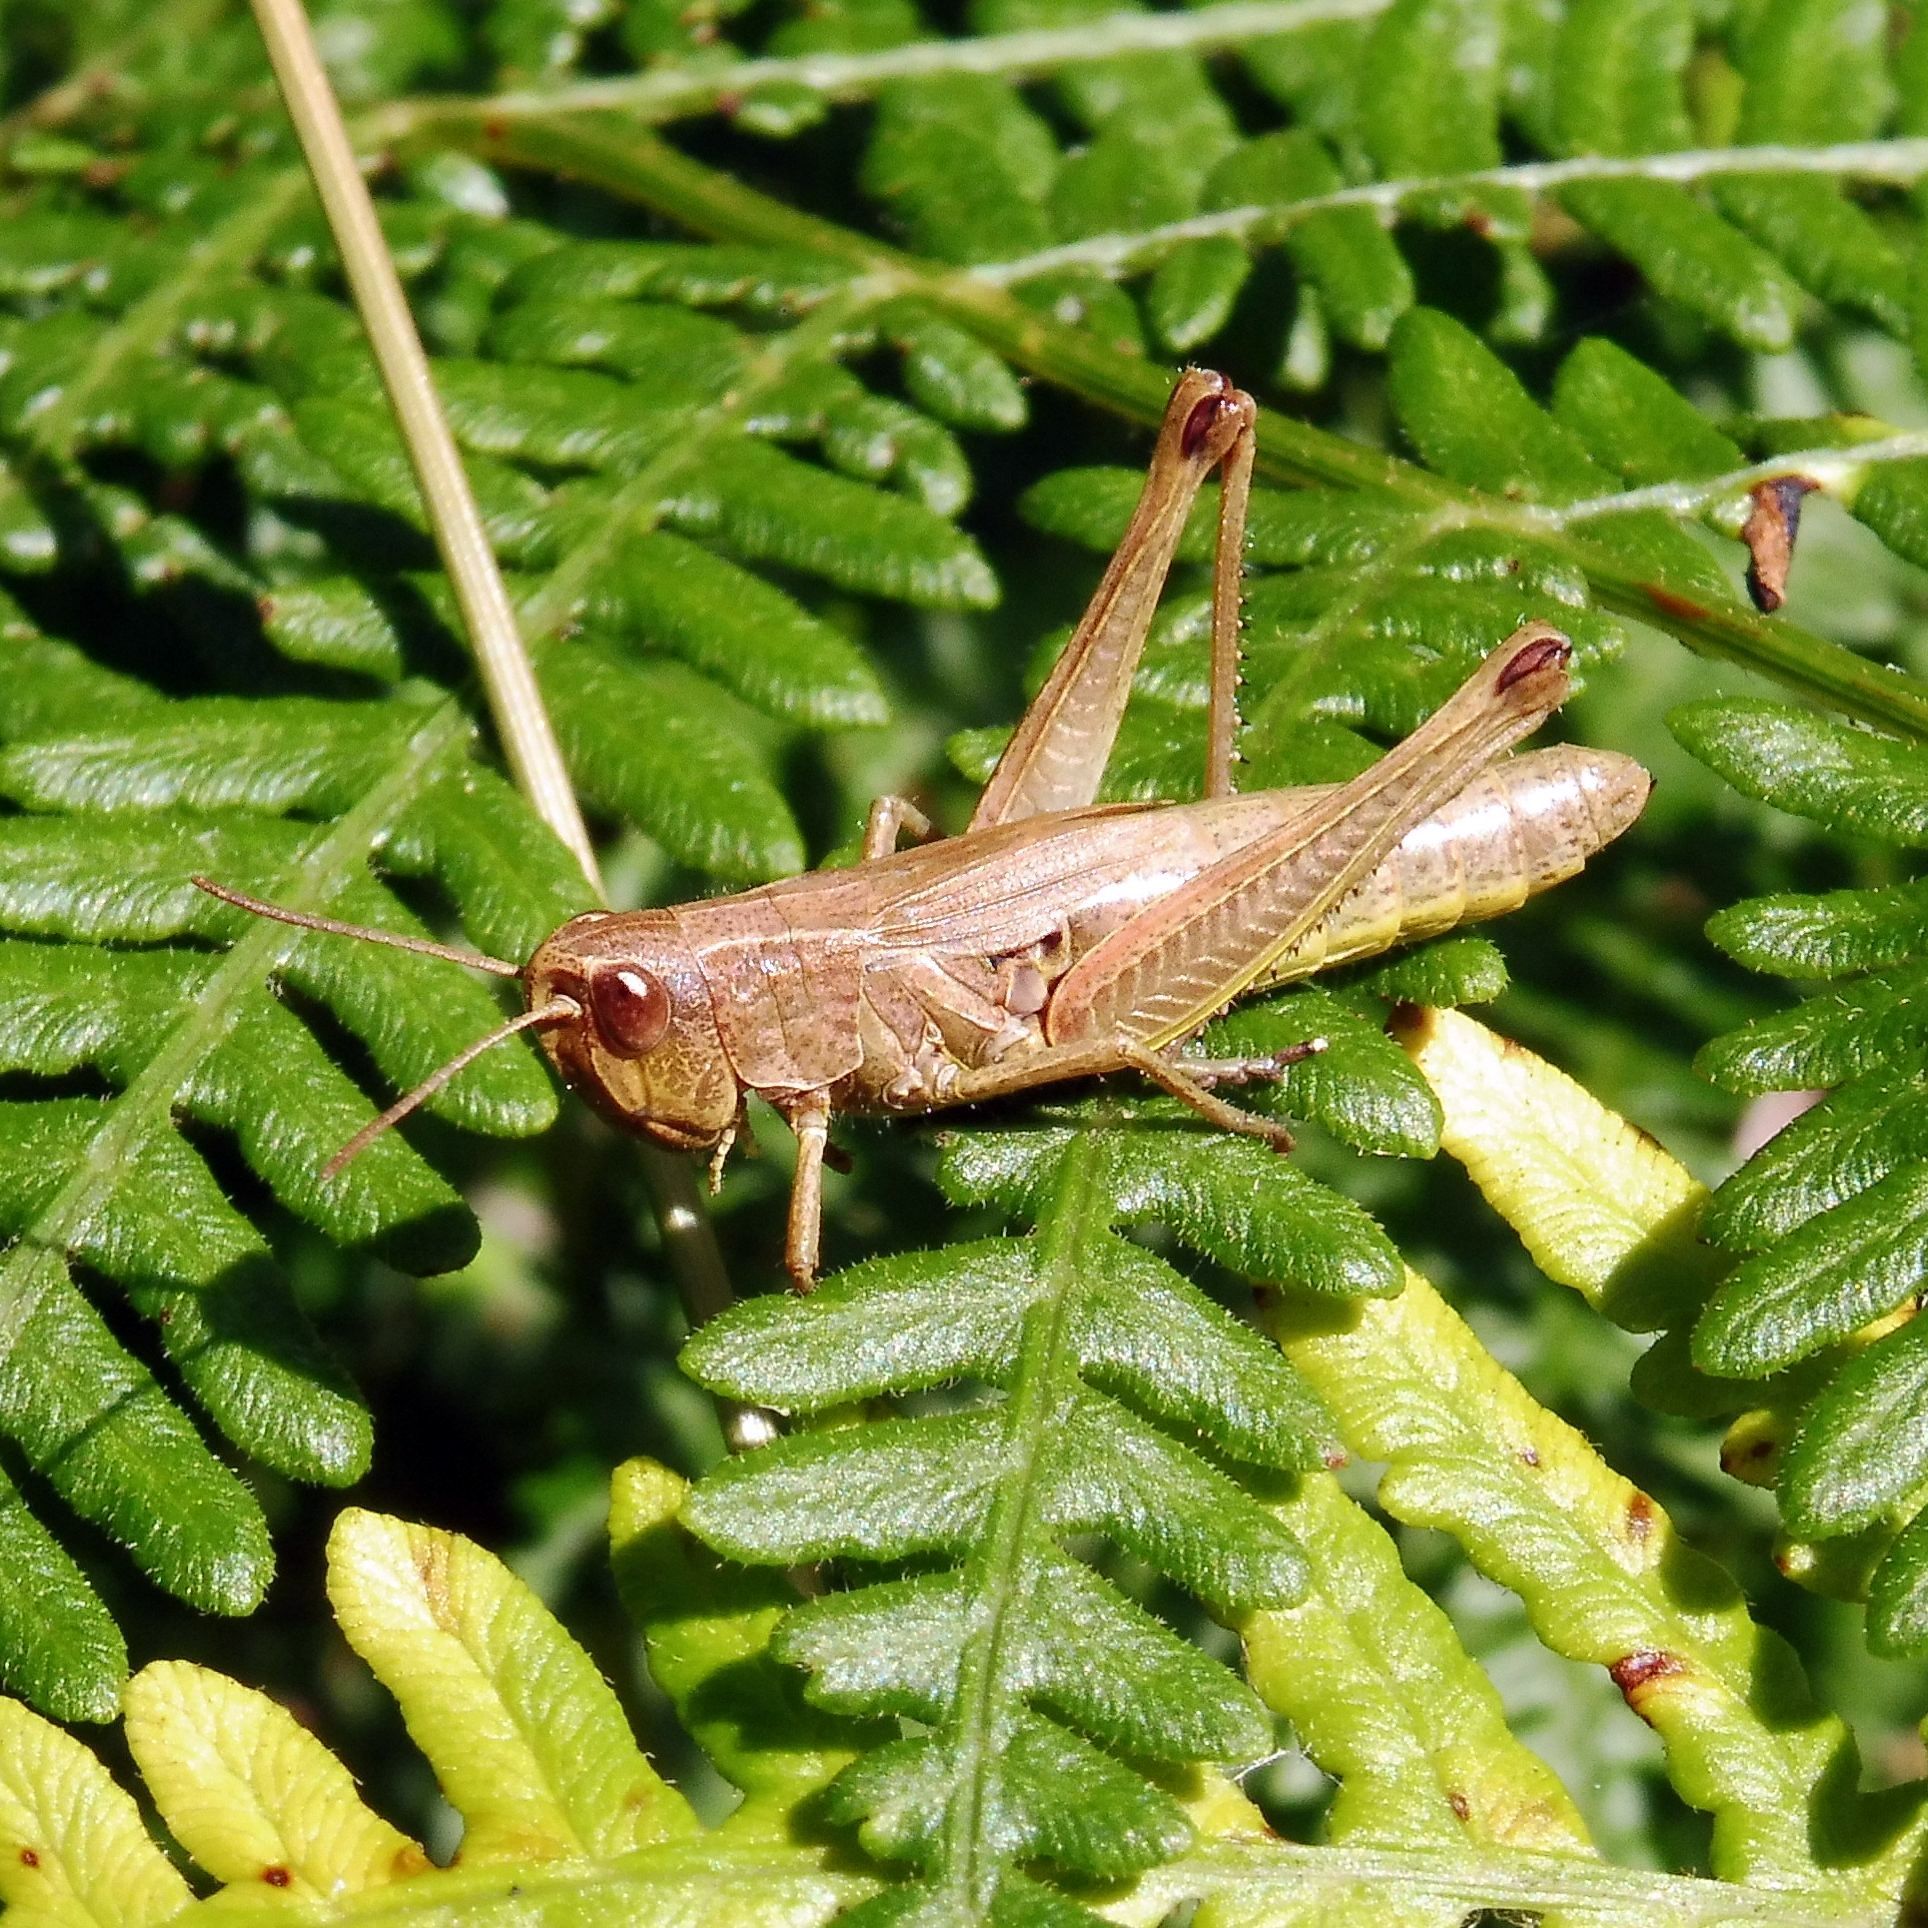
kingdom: Animalia
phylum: Arthropoda
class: Insecta
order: Orthoptera
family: Acrididae
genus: Pseudochorthippus
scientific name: Pseudochorthippus parallelus
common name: Meadow grasshopper
